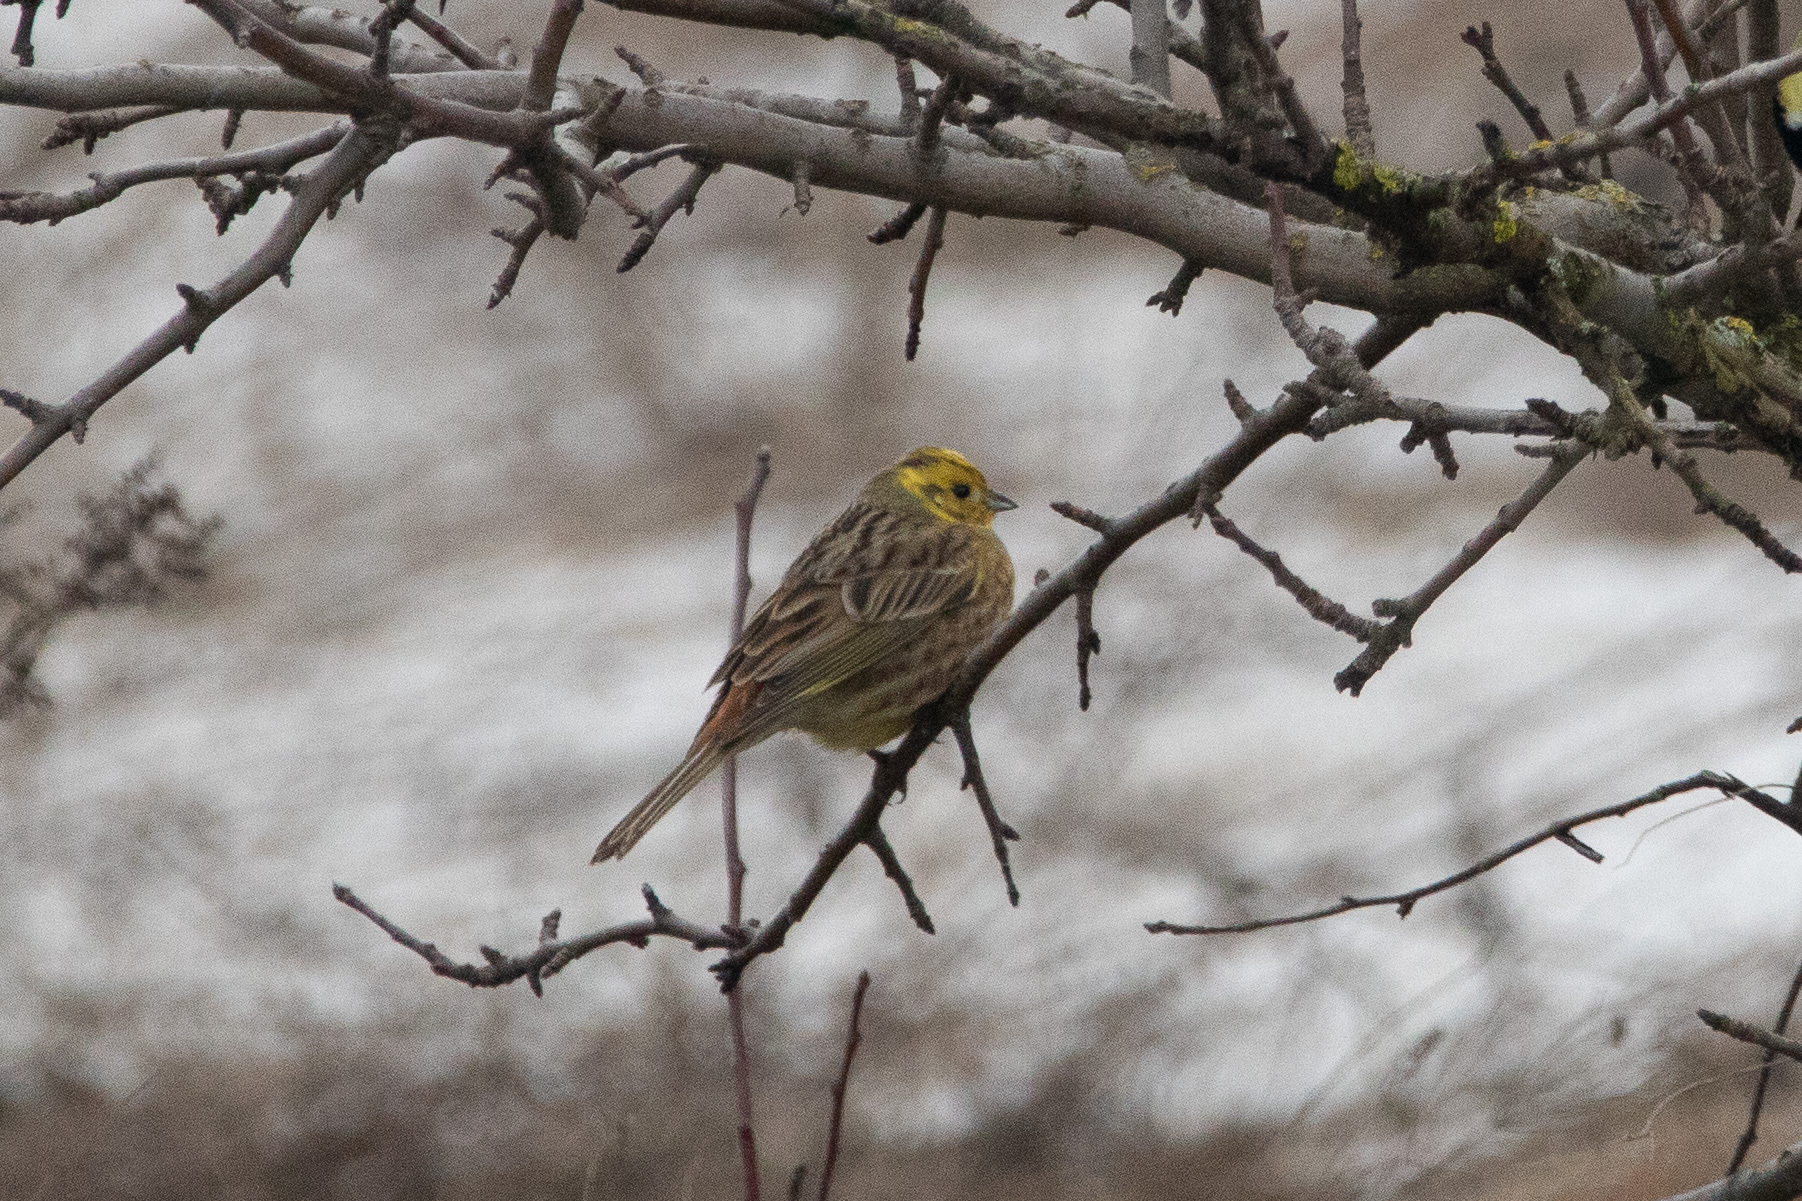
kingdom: Animalia
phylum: Chordata
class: Aves
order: Passeriformes
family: Emberizidae
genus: Emberiza
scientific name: Emberiza citrinella
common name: Yellowhammer
